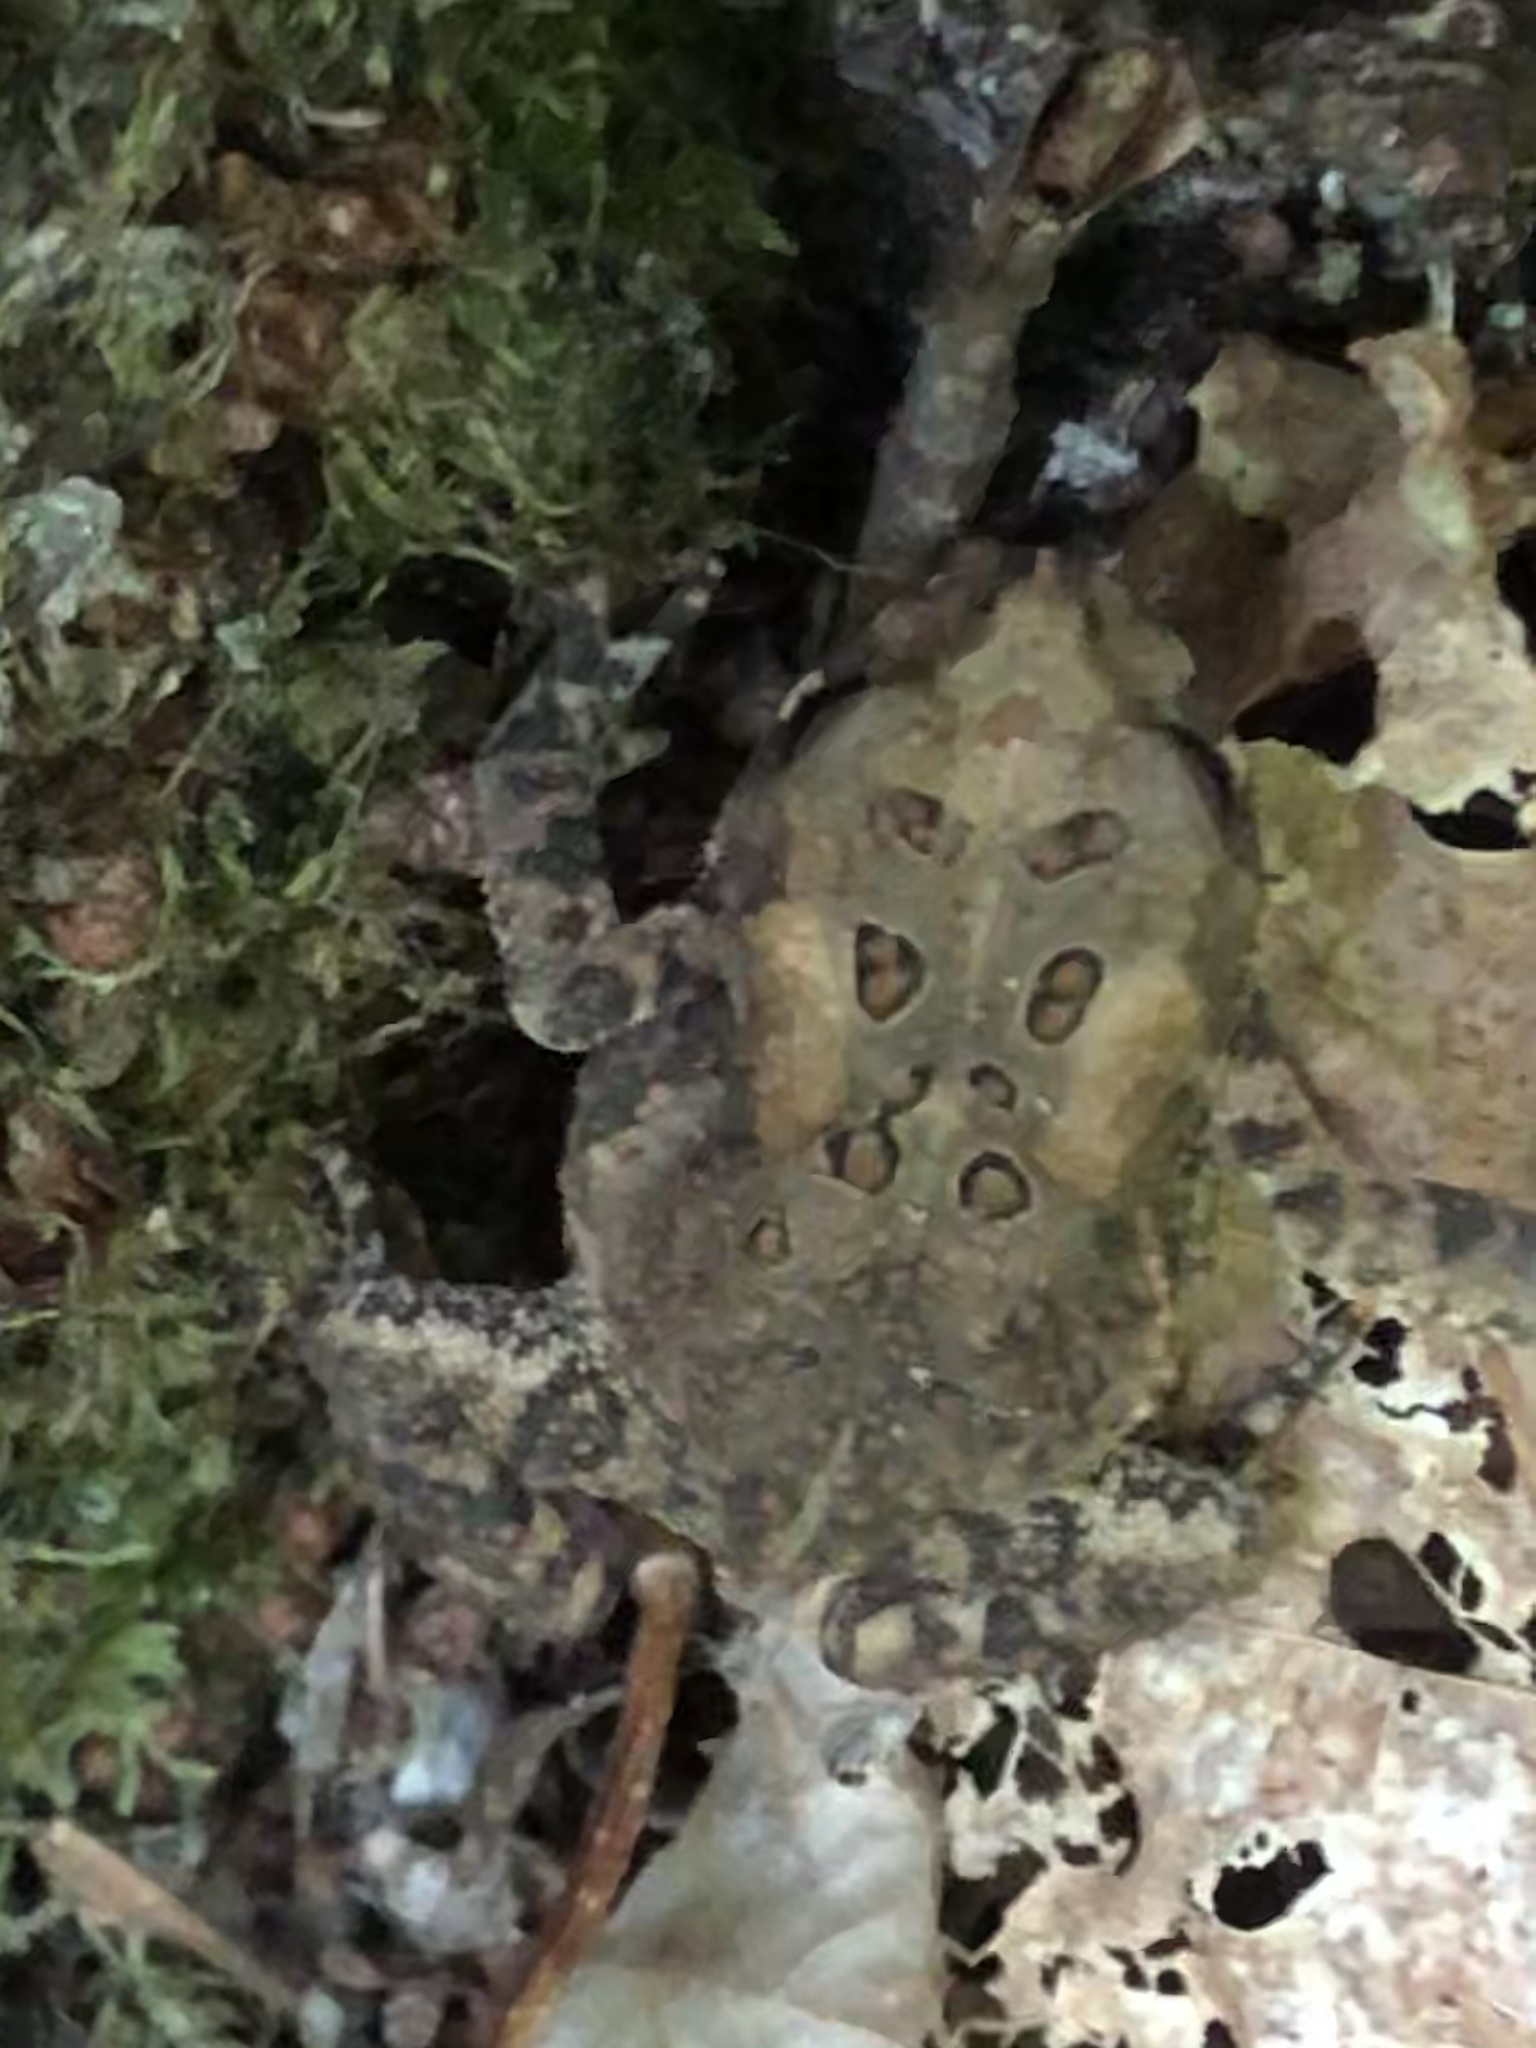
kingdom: Animalia
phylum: Chordata
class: Amphibia
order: Anura
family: Bufonidae
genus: Anaxyrus
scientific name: Anaxyrus americanus
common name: American toad
